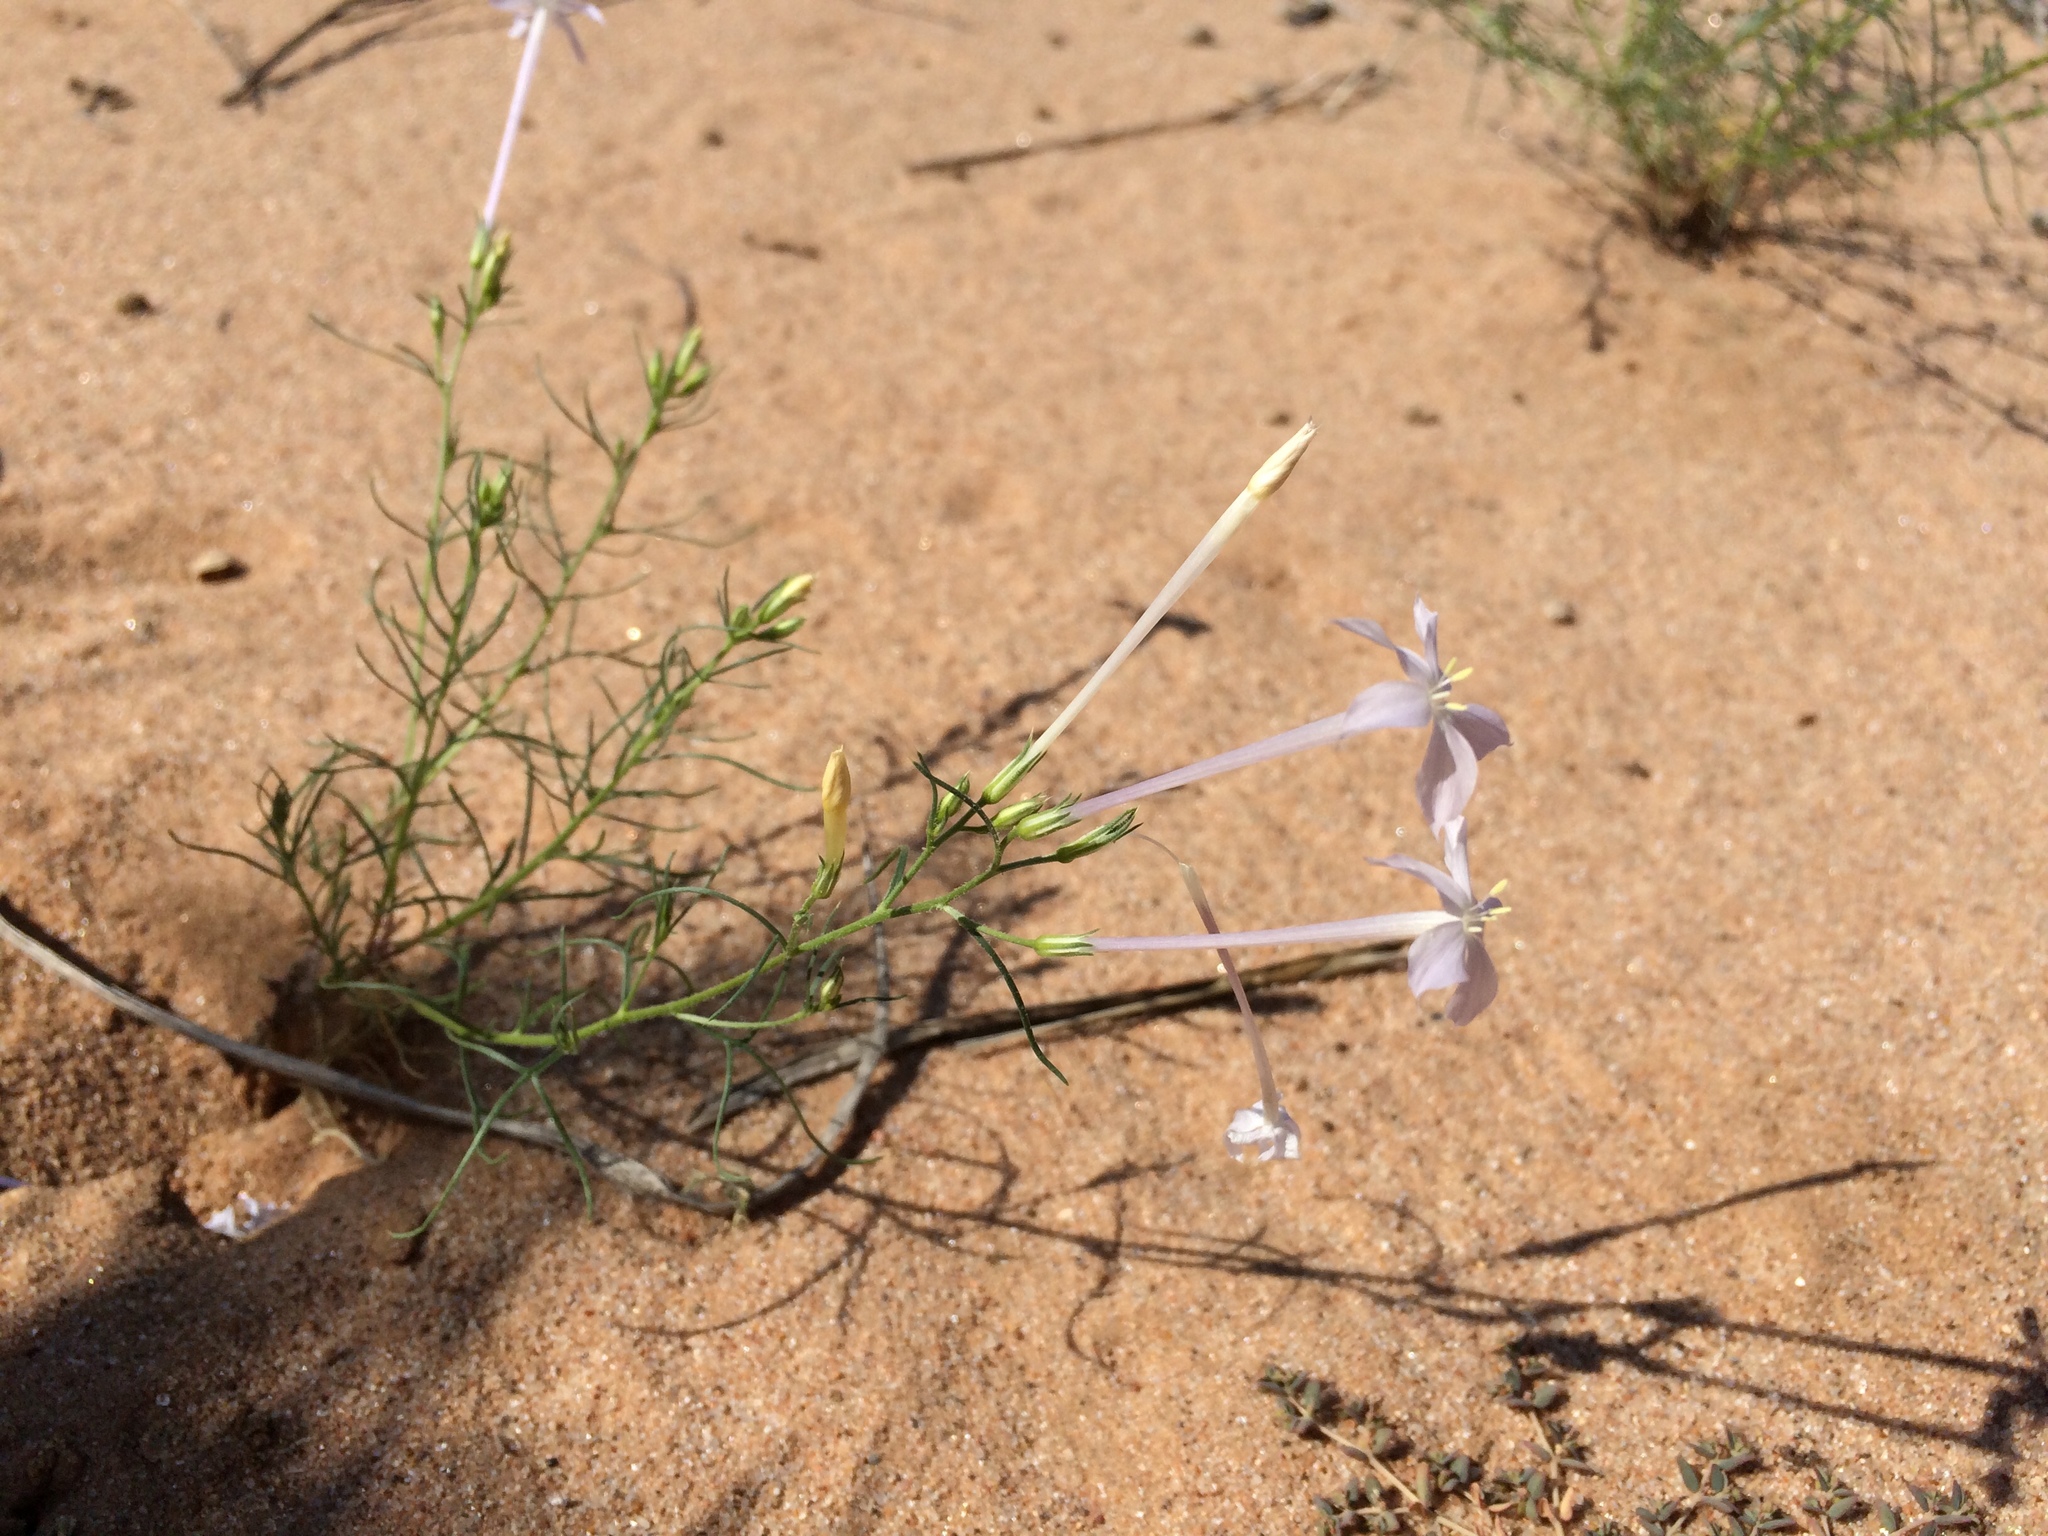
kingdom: Plantae
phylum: Tracheophyta
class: Magnoliopsida
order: Ericales
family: Polemoniaceae
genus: Ipomopsis
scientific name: Ipomopsis longiflora
